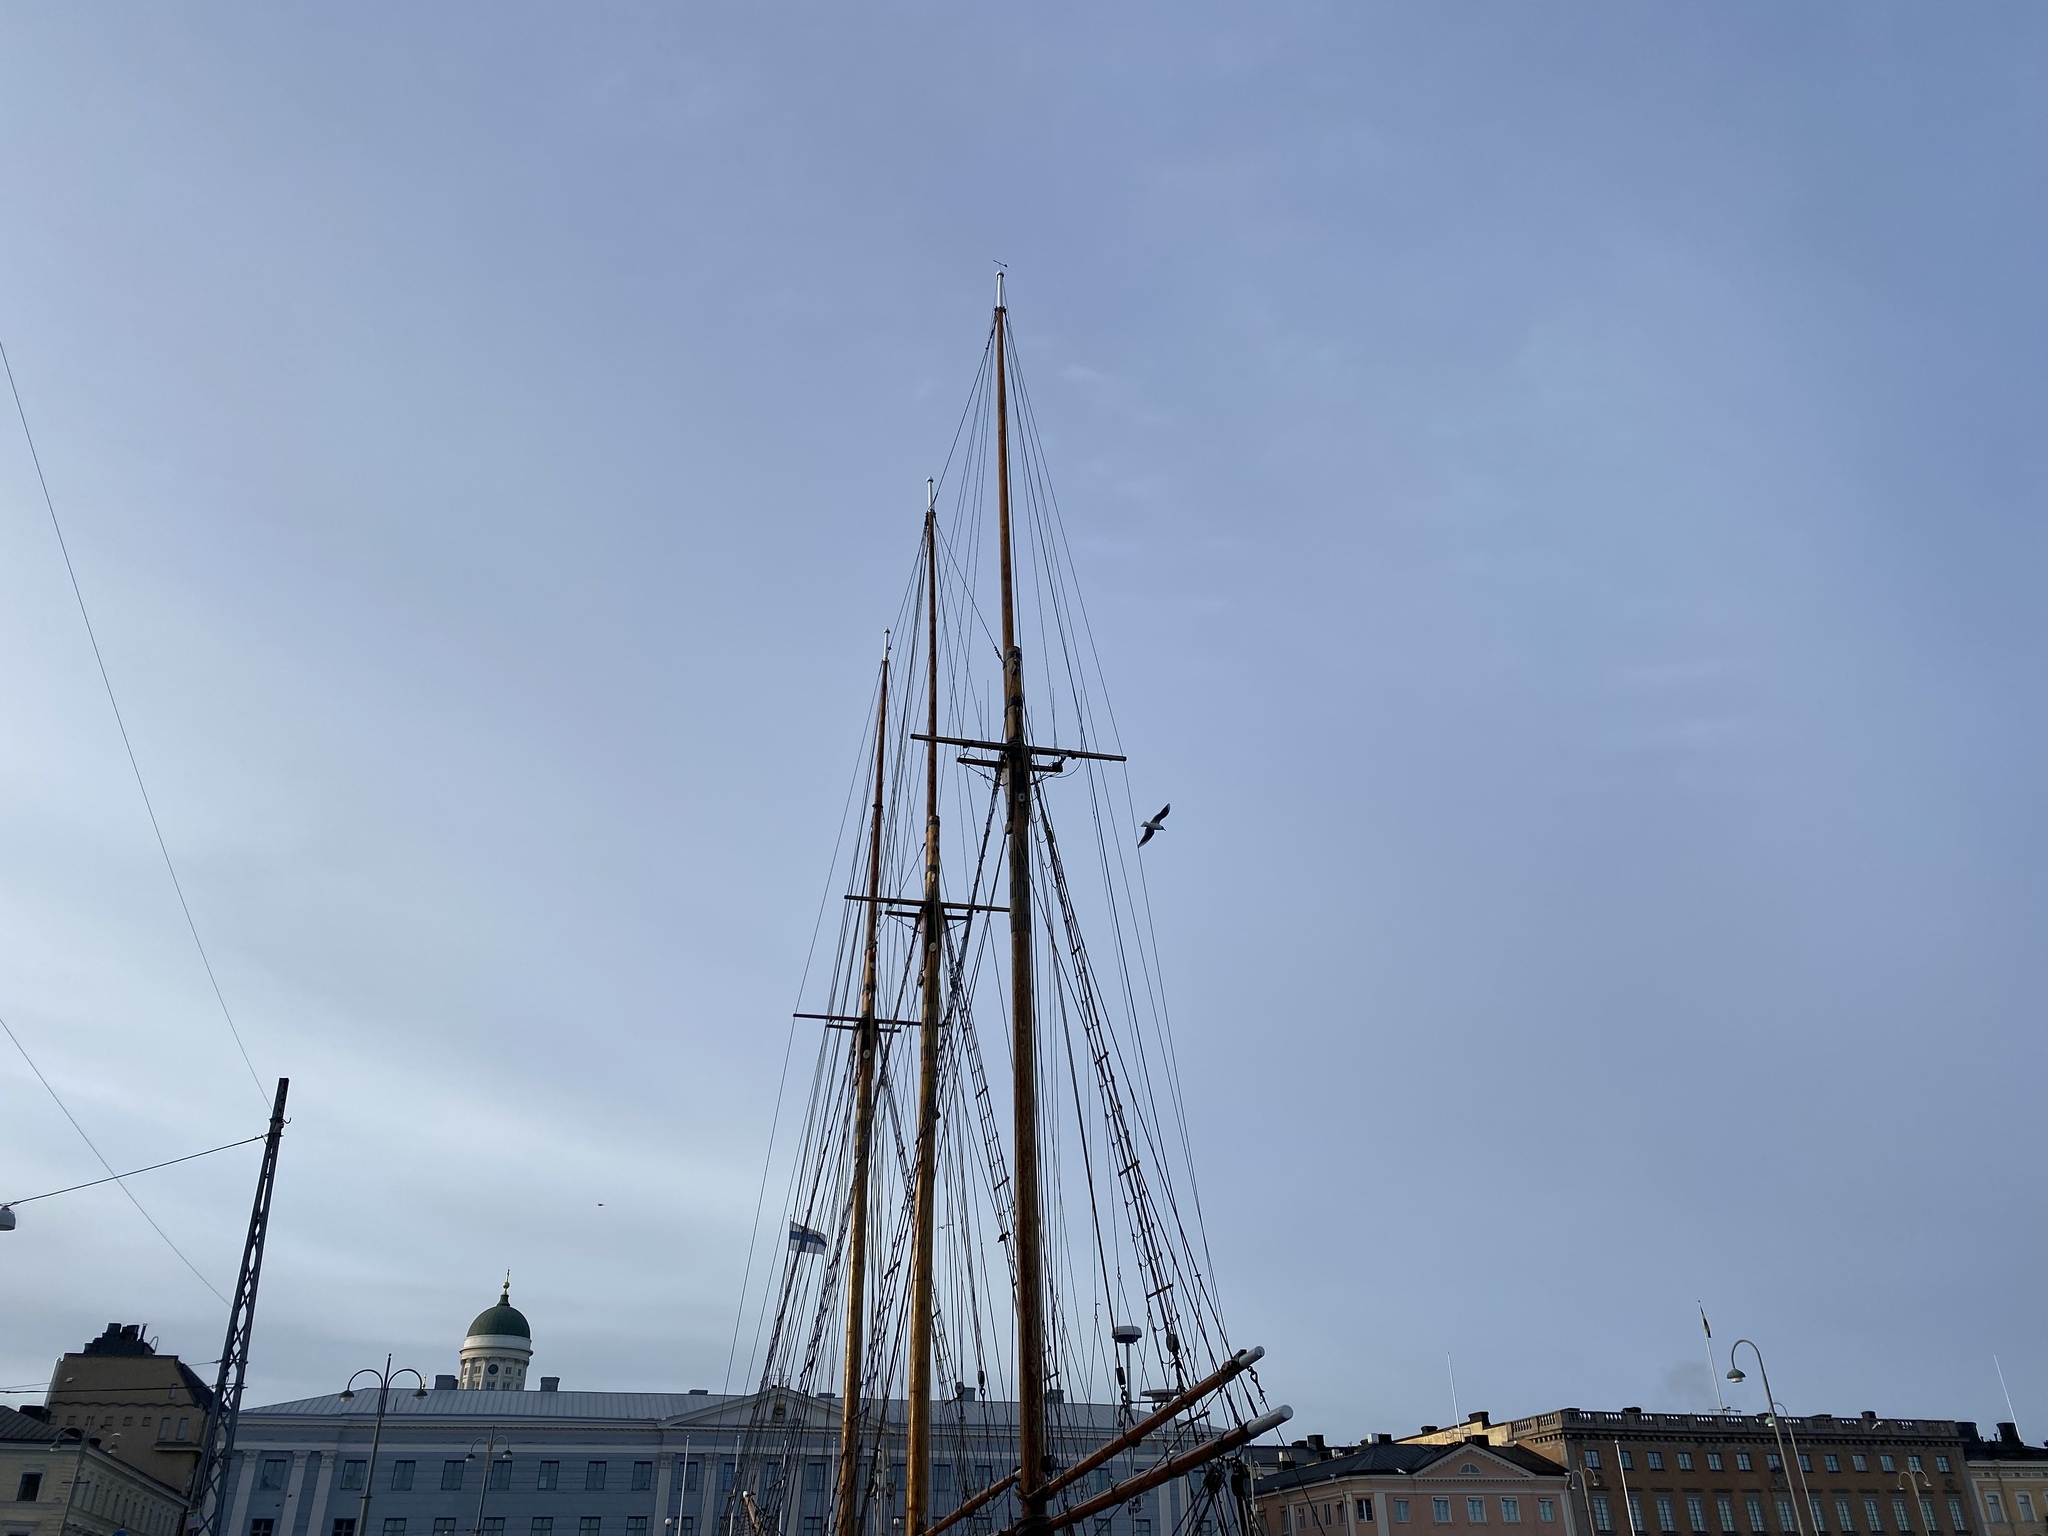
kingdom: Animalia
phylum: Chordata
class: Aves
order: Charadriiformes
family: Laridae
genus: Chroicocephalus
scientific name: Chroicocephalus ridibundus
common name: Black-headed gull
